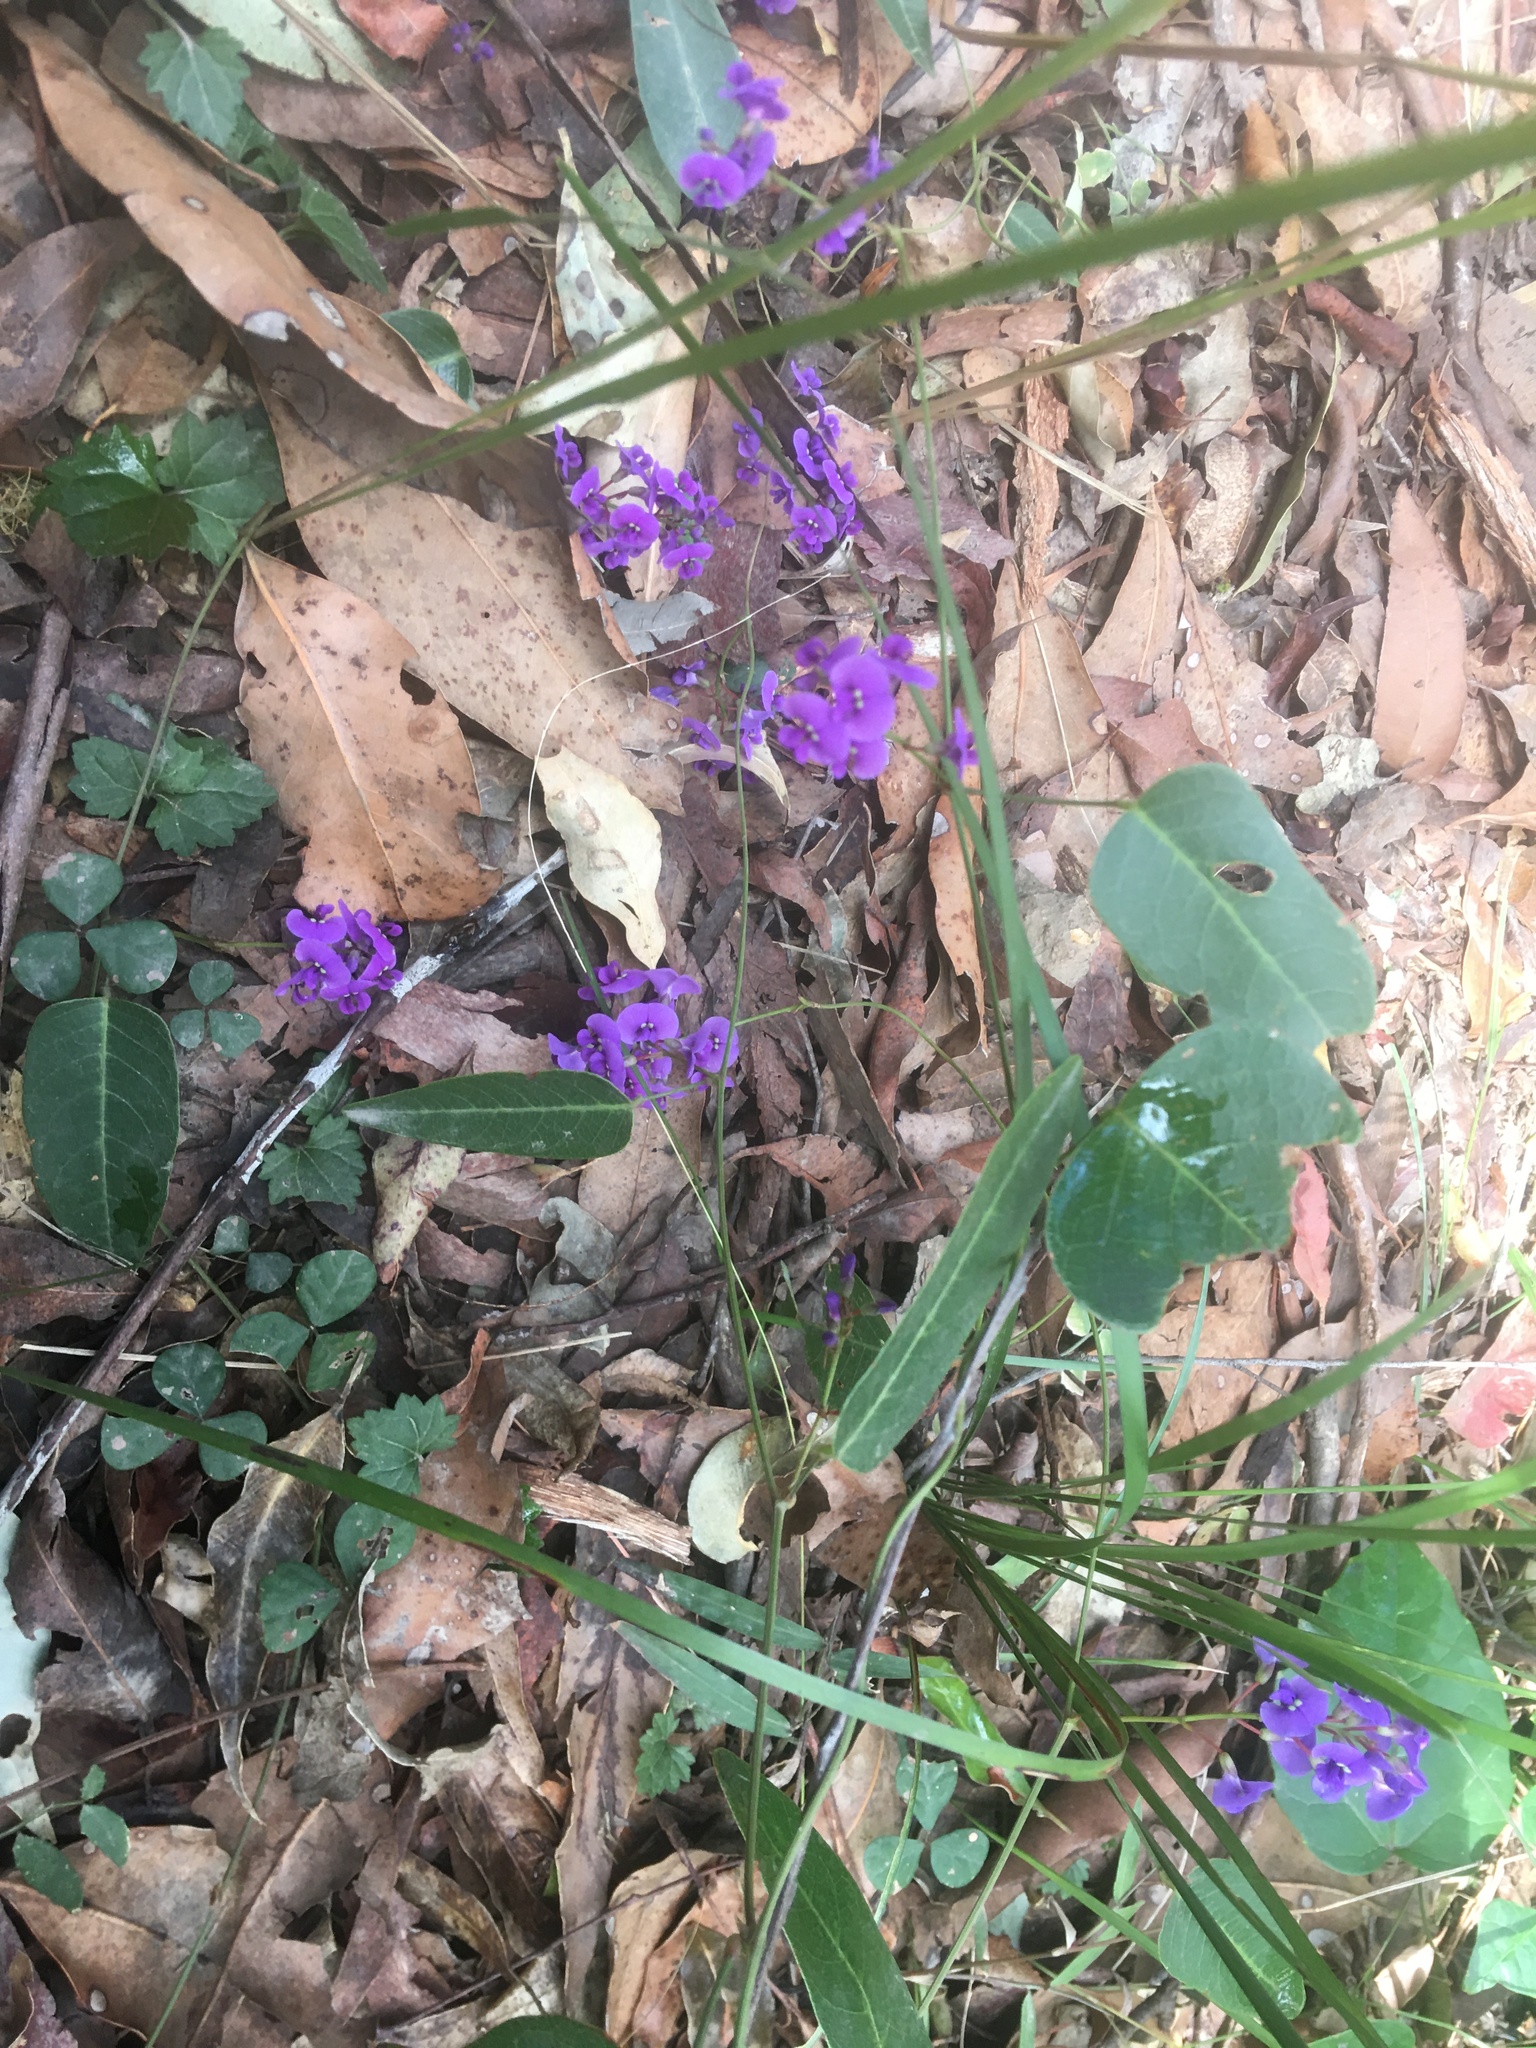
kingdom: Plantae
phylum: Tracheophyta
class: Magnoliopsida
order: Fabales
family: Fabaceae
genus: Hardenbergia
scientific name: Hardenbergia violacea
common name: Coral-pea
